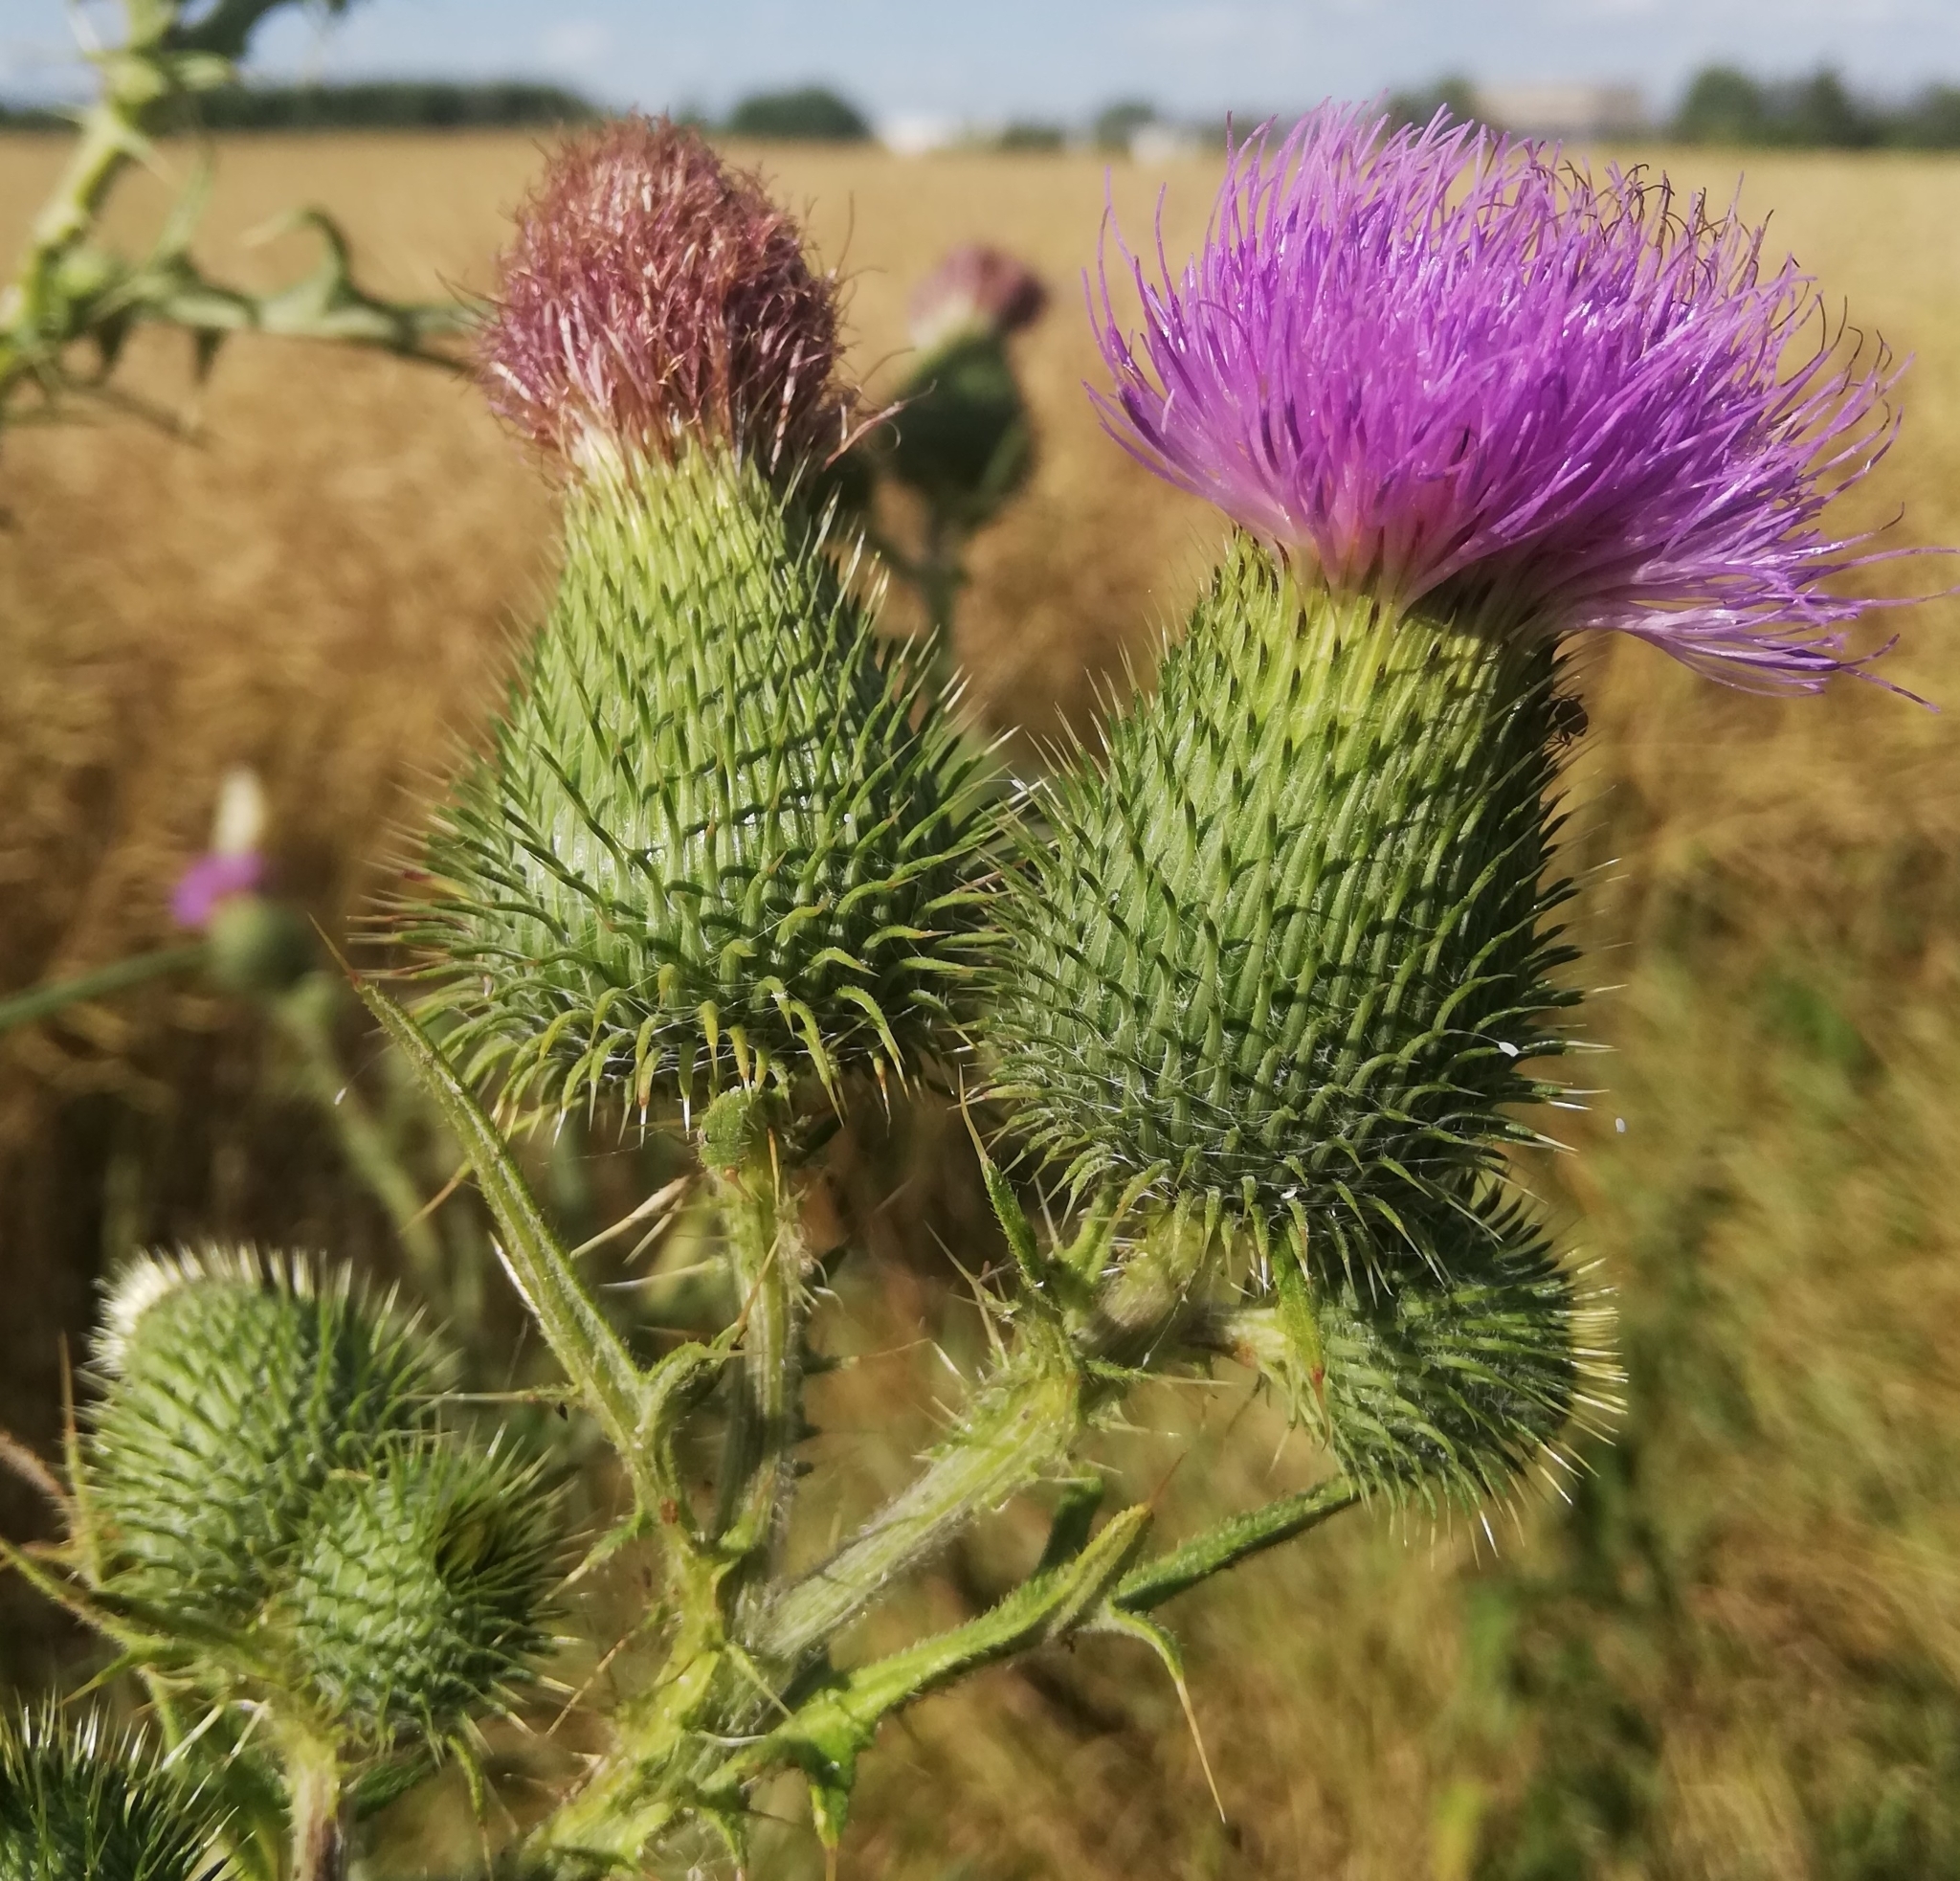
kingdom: Plantae
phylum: Tracheophyta
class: Magnoliopsida
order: Asterales
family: Asteraceae
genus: Cirsium
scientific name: Cirsium vulgare
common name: Bull thistle
